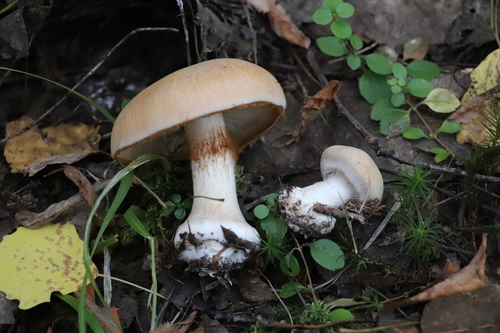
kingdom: Fungi
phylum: Basidiomycota
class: Agaricomycetes
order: Agaricales
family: Cortinariaceae
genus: Thaxterogaster
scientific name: Thaxterogaster talus
